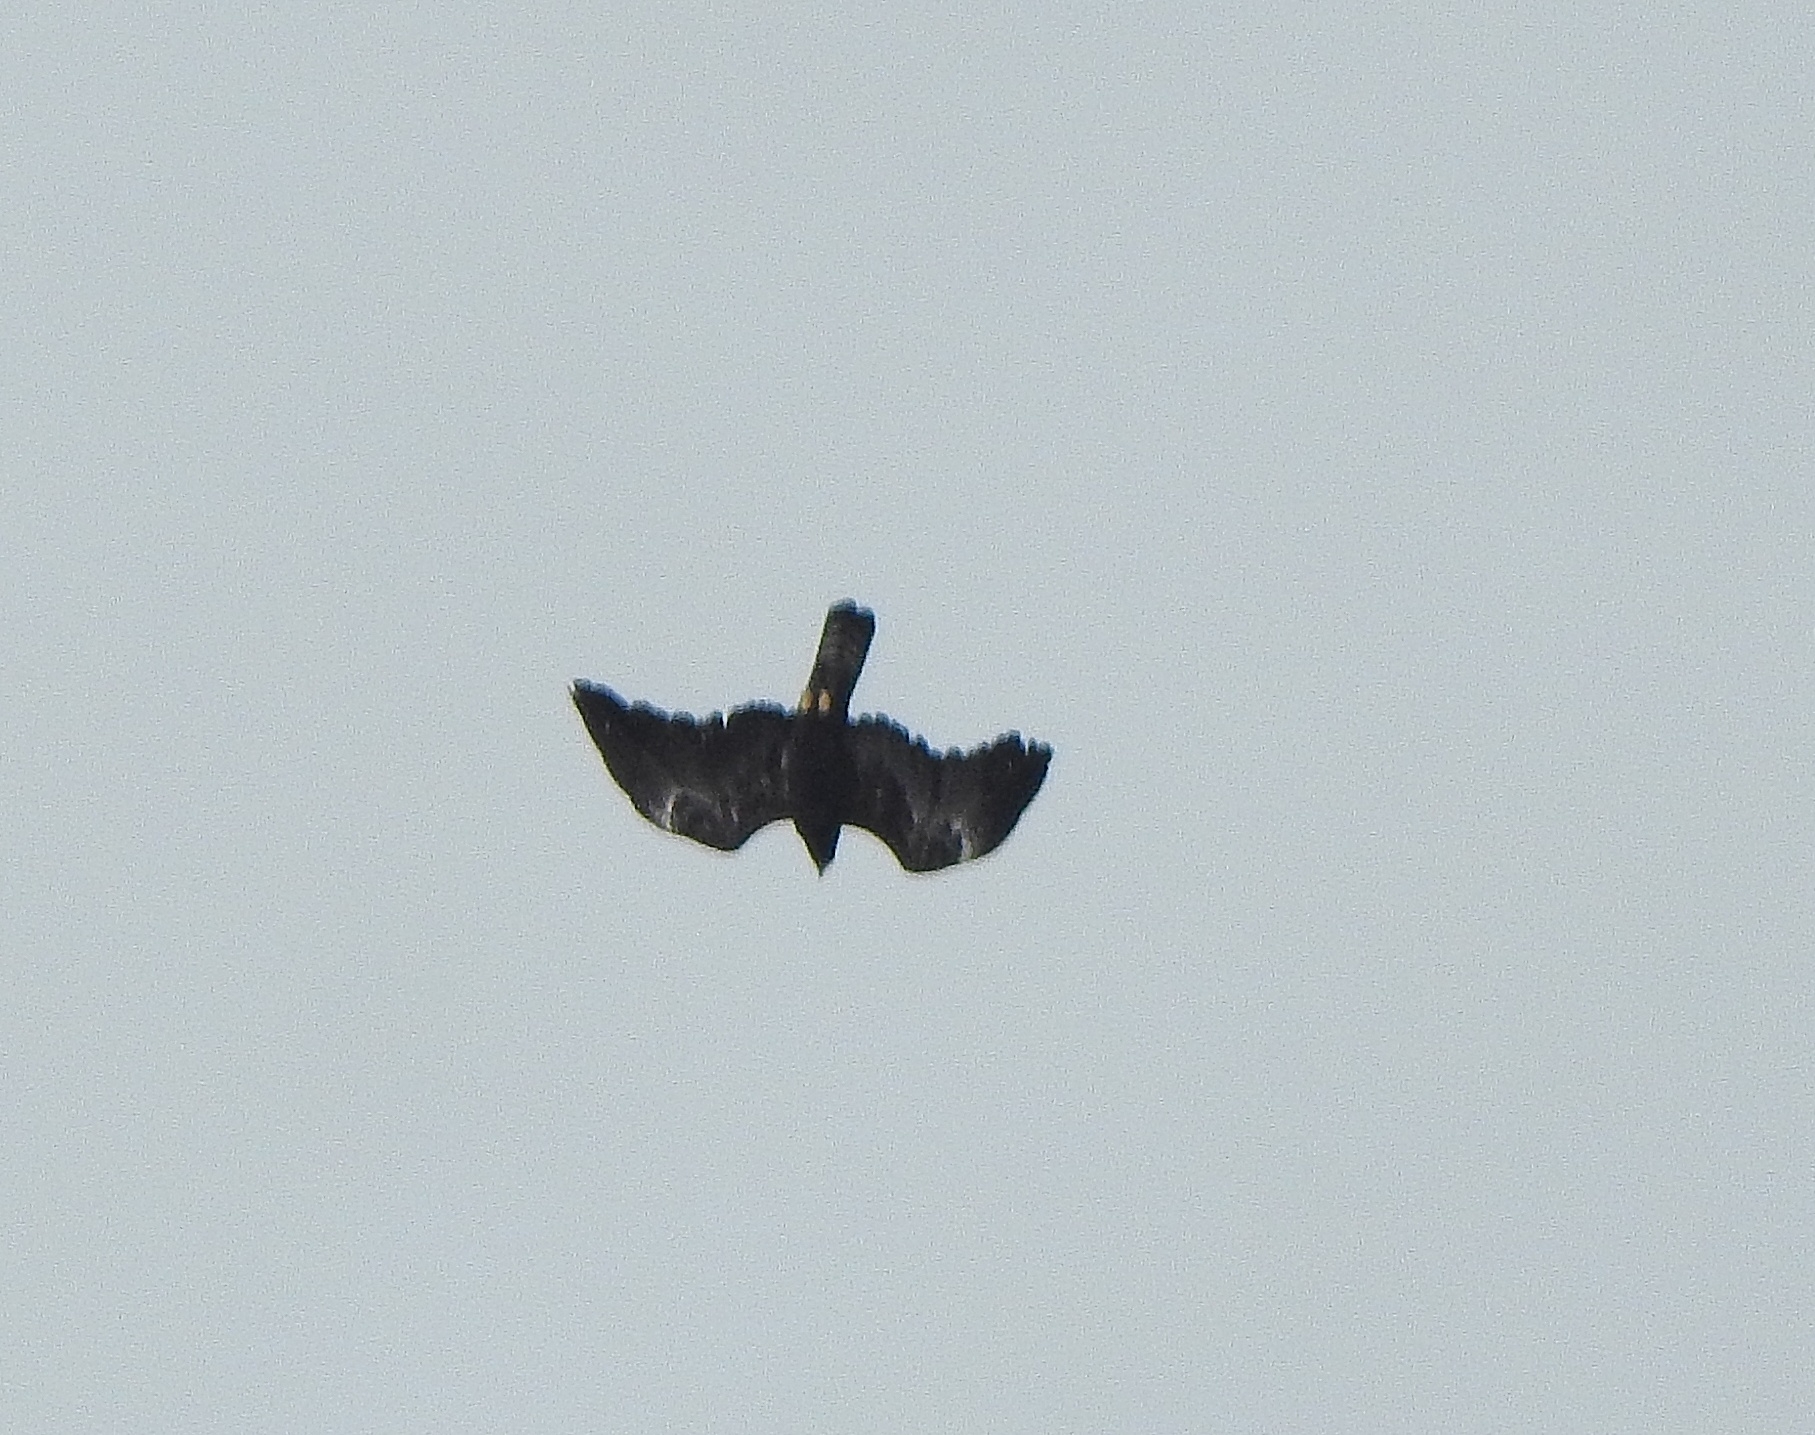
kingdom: Animalia
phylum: Chordata
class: Aves
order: Accipitriformes
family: Accipitridae
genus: Ictinaetus
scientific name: Ictinaetus malayensis
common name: Black eagle
